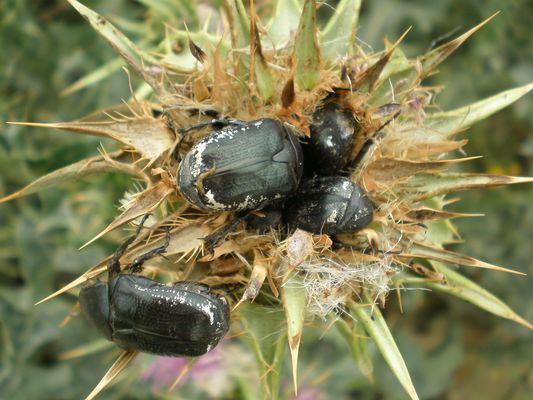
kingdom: Animalia
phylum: Arthropoda
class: Insecta
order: Coleoptera
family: Scarabaeidae
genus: Aethiessa
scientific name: Aethiessa floralis
